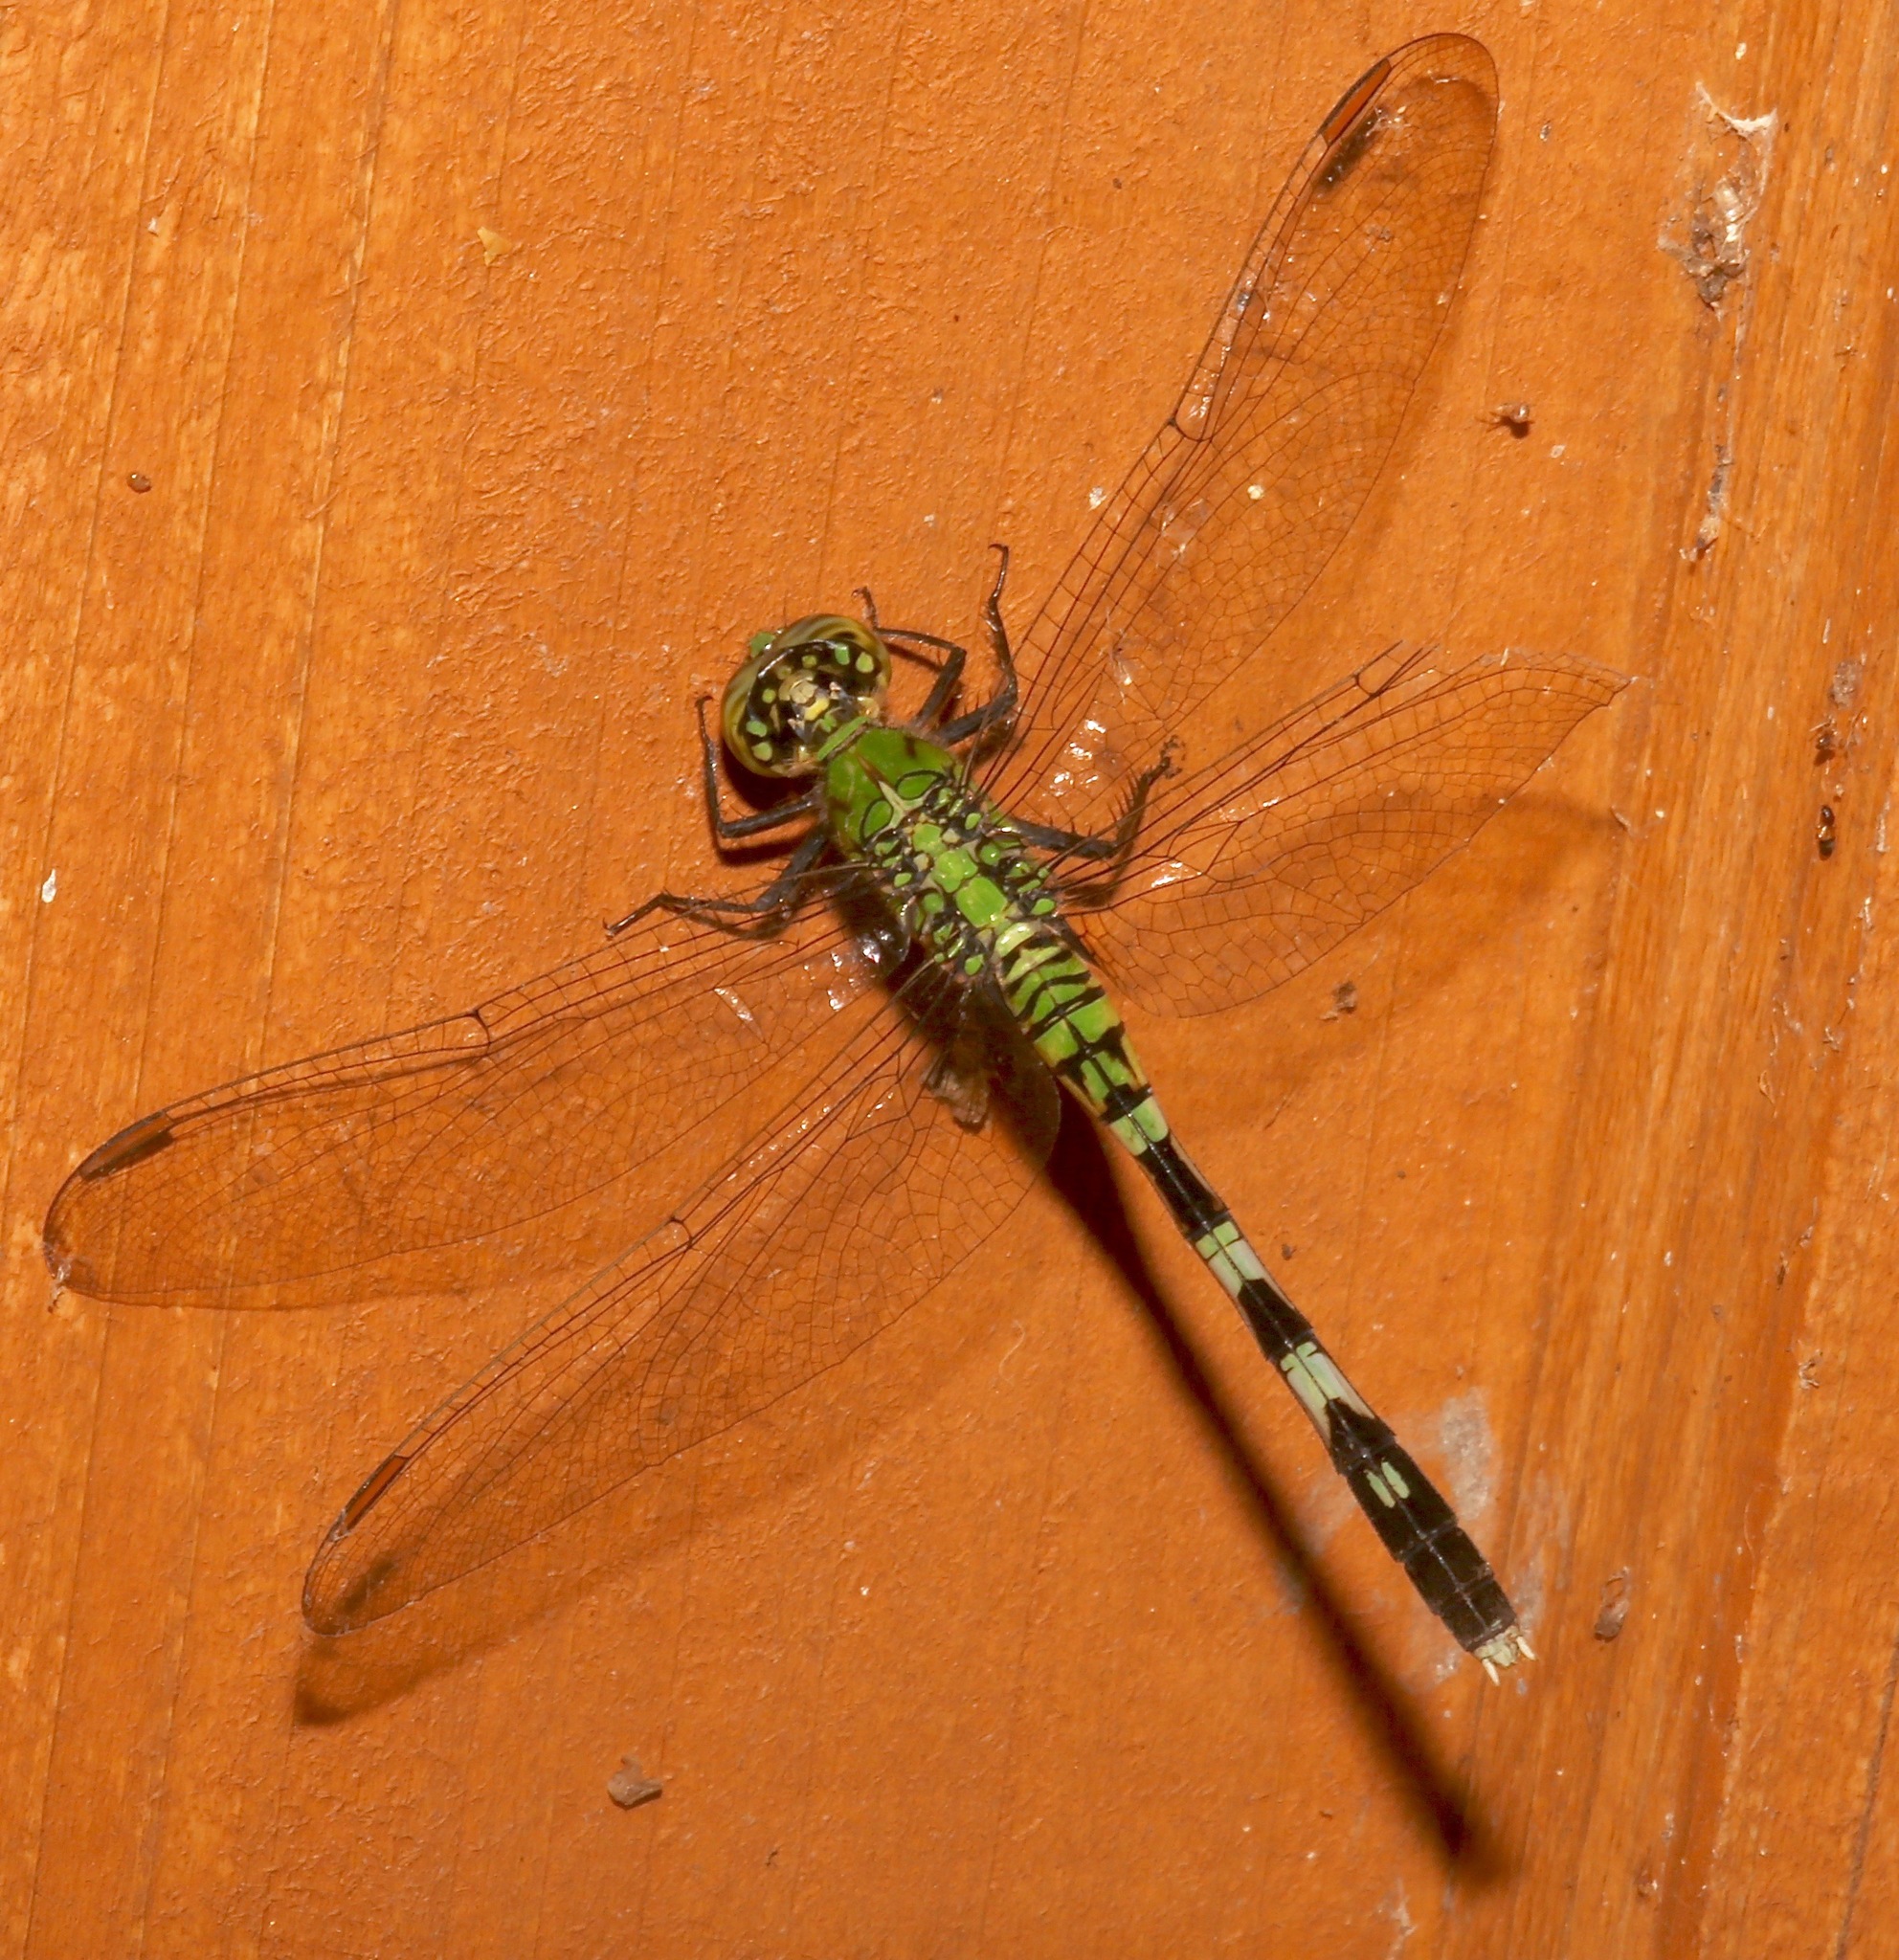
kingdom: Animalia
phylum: Arthropoda
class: Insecta
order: Odonata
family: Libellulidae
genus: Erythemis
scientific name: Erythemis simplicicollis
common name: Eastern pondhawk
